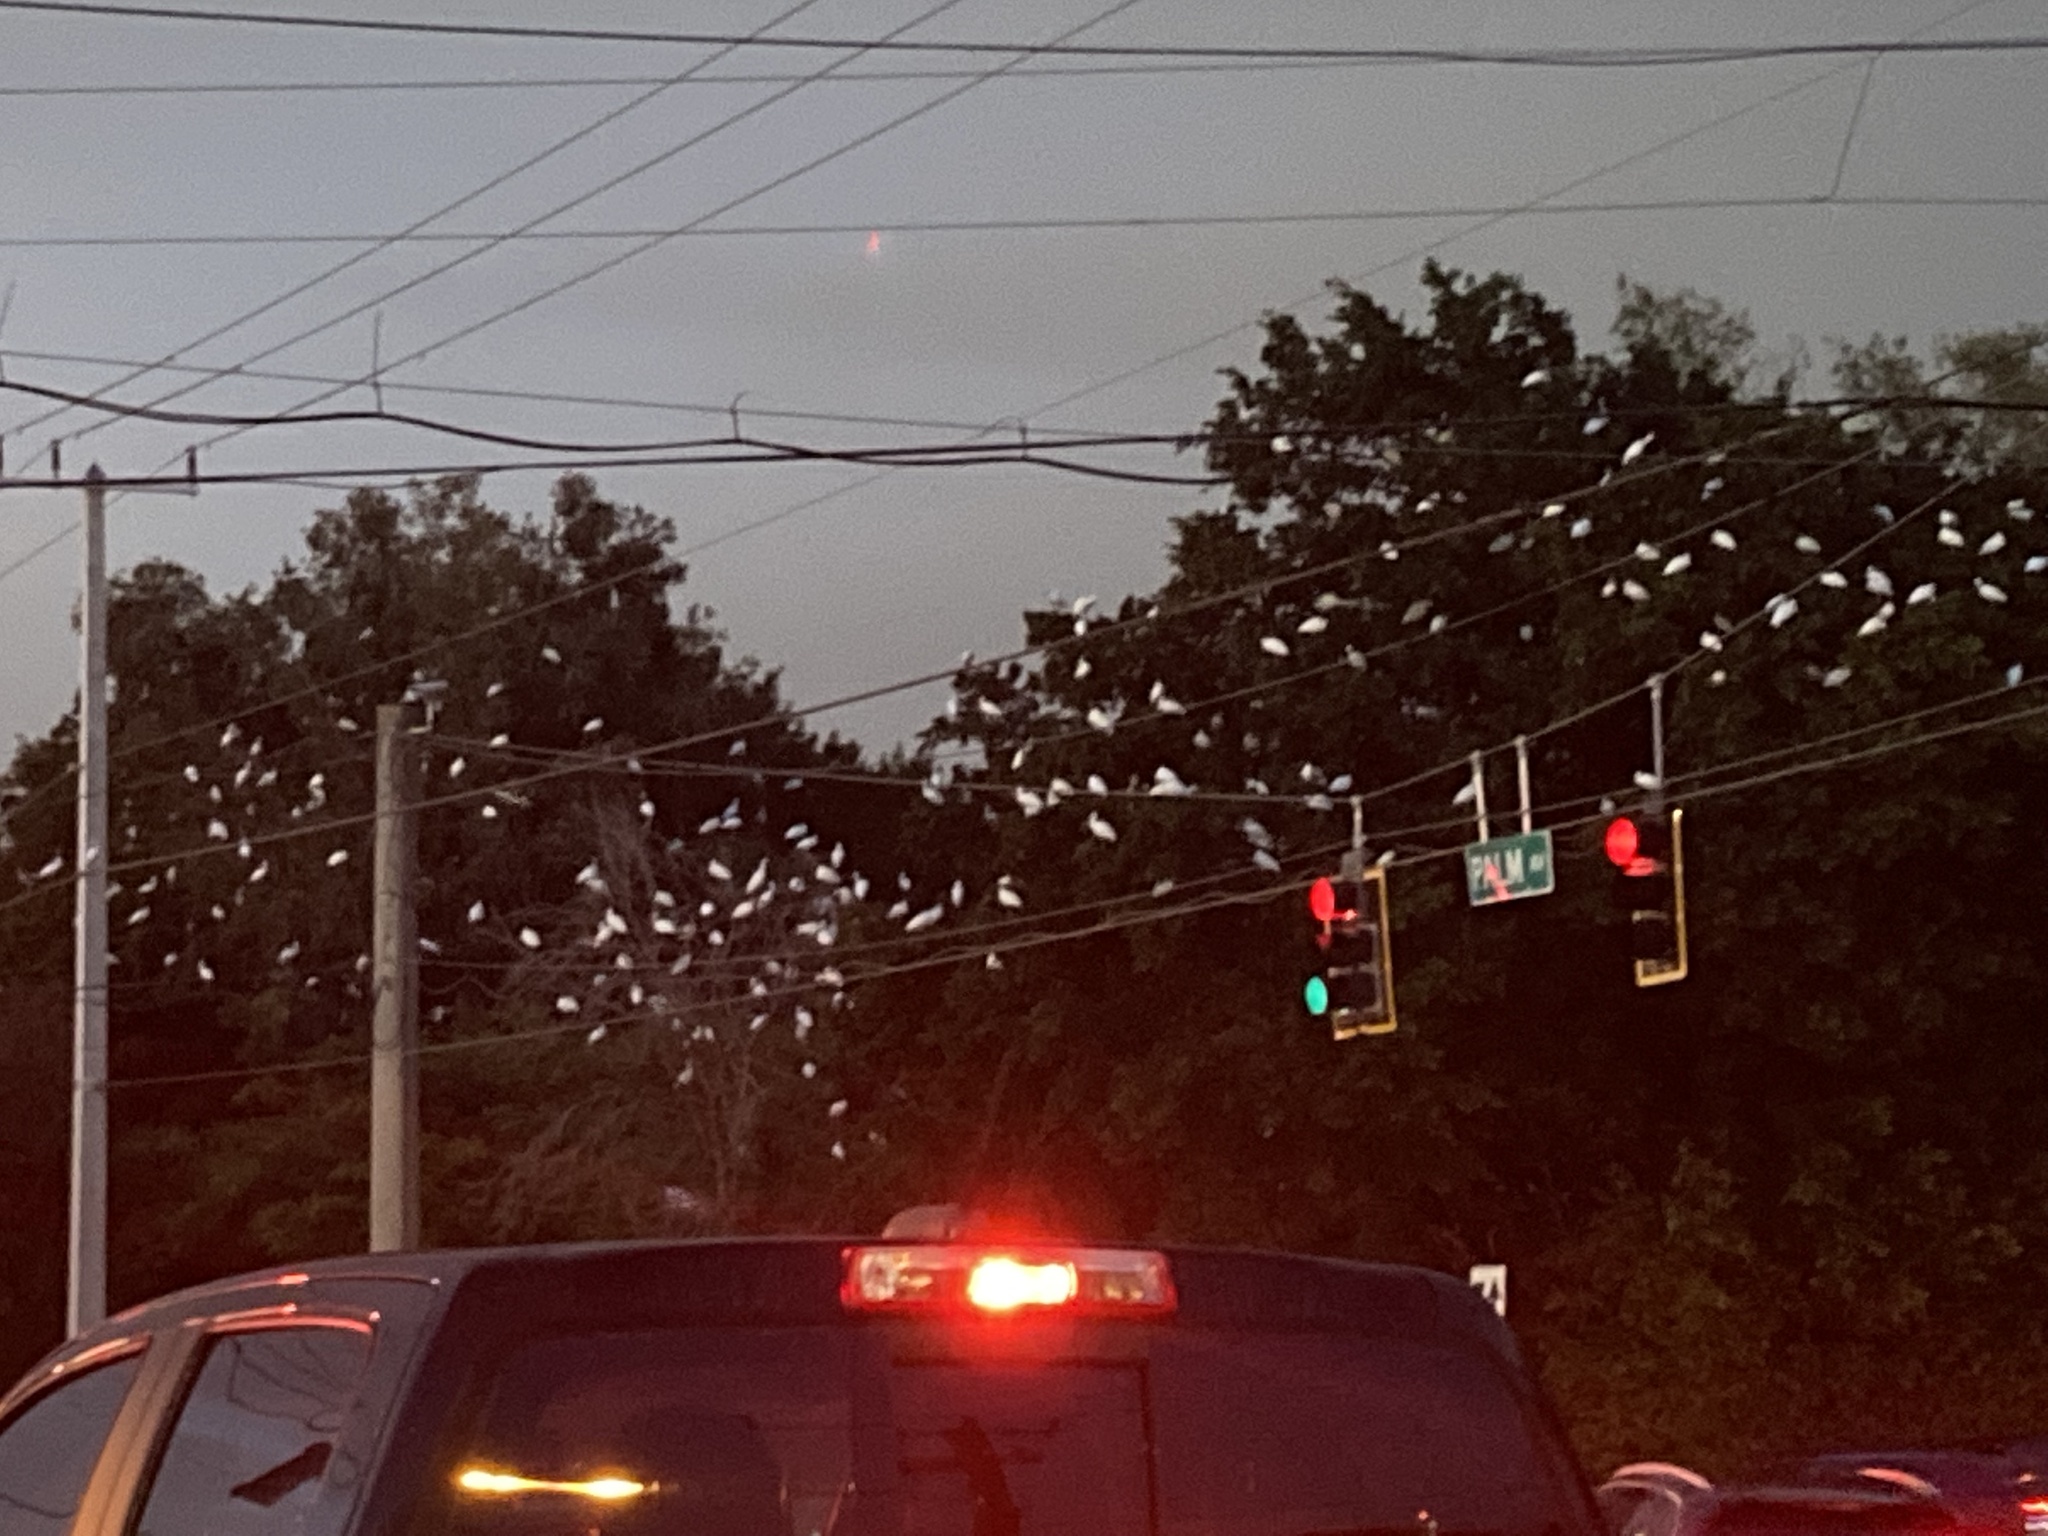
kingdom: Animalia
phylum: Chordata
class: Aves
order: Pelecaniformes
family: Threskiornithidae
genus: Eudocimus
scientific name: Eudocimus albus
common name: White ibis
